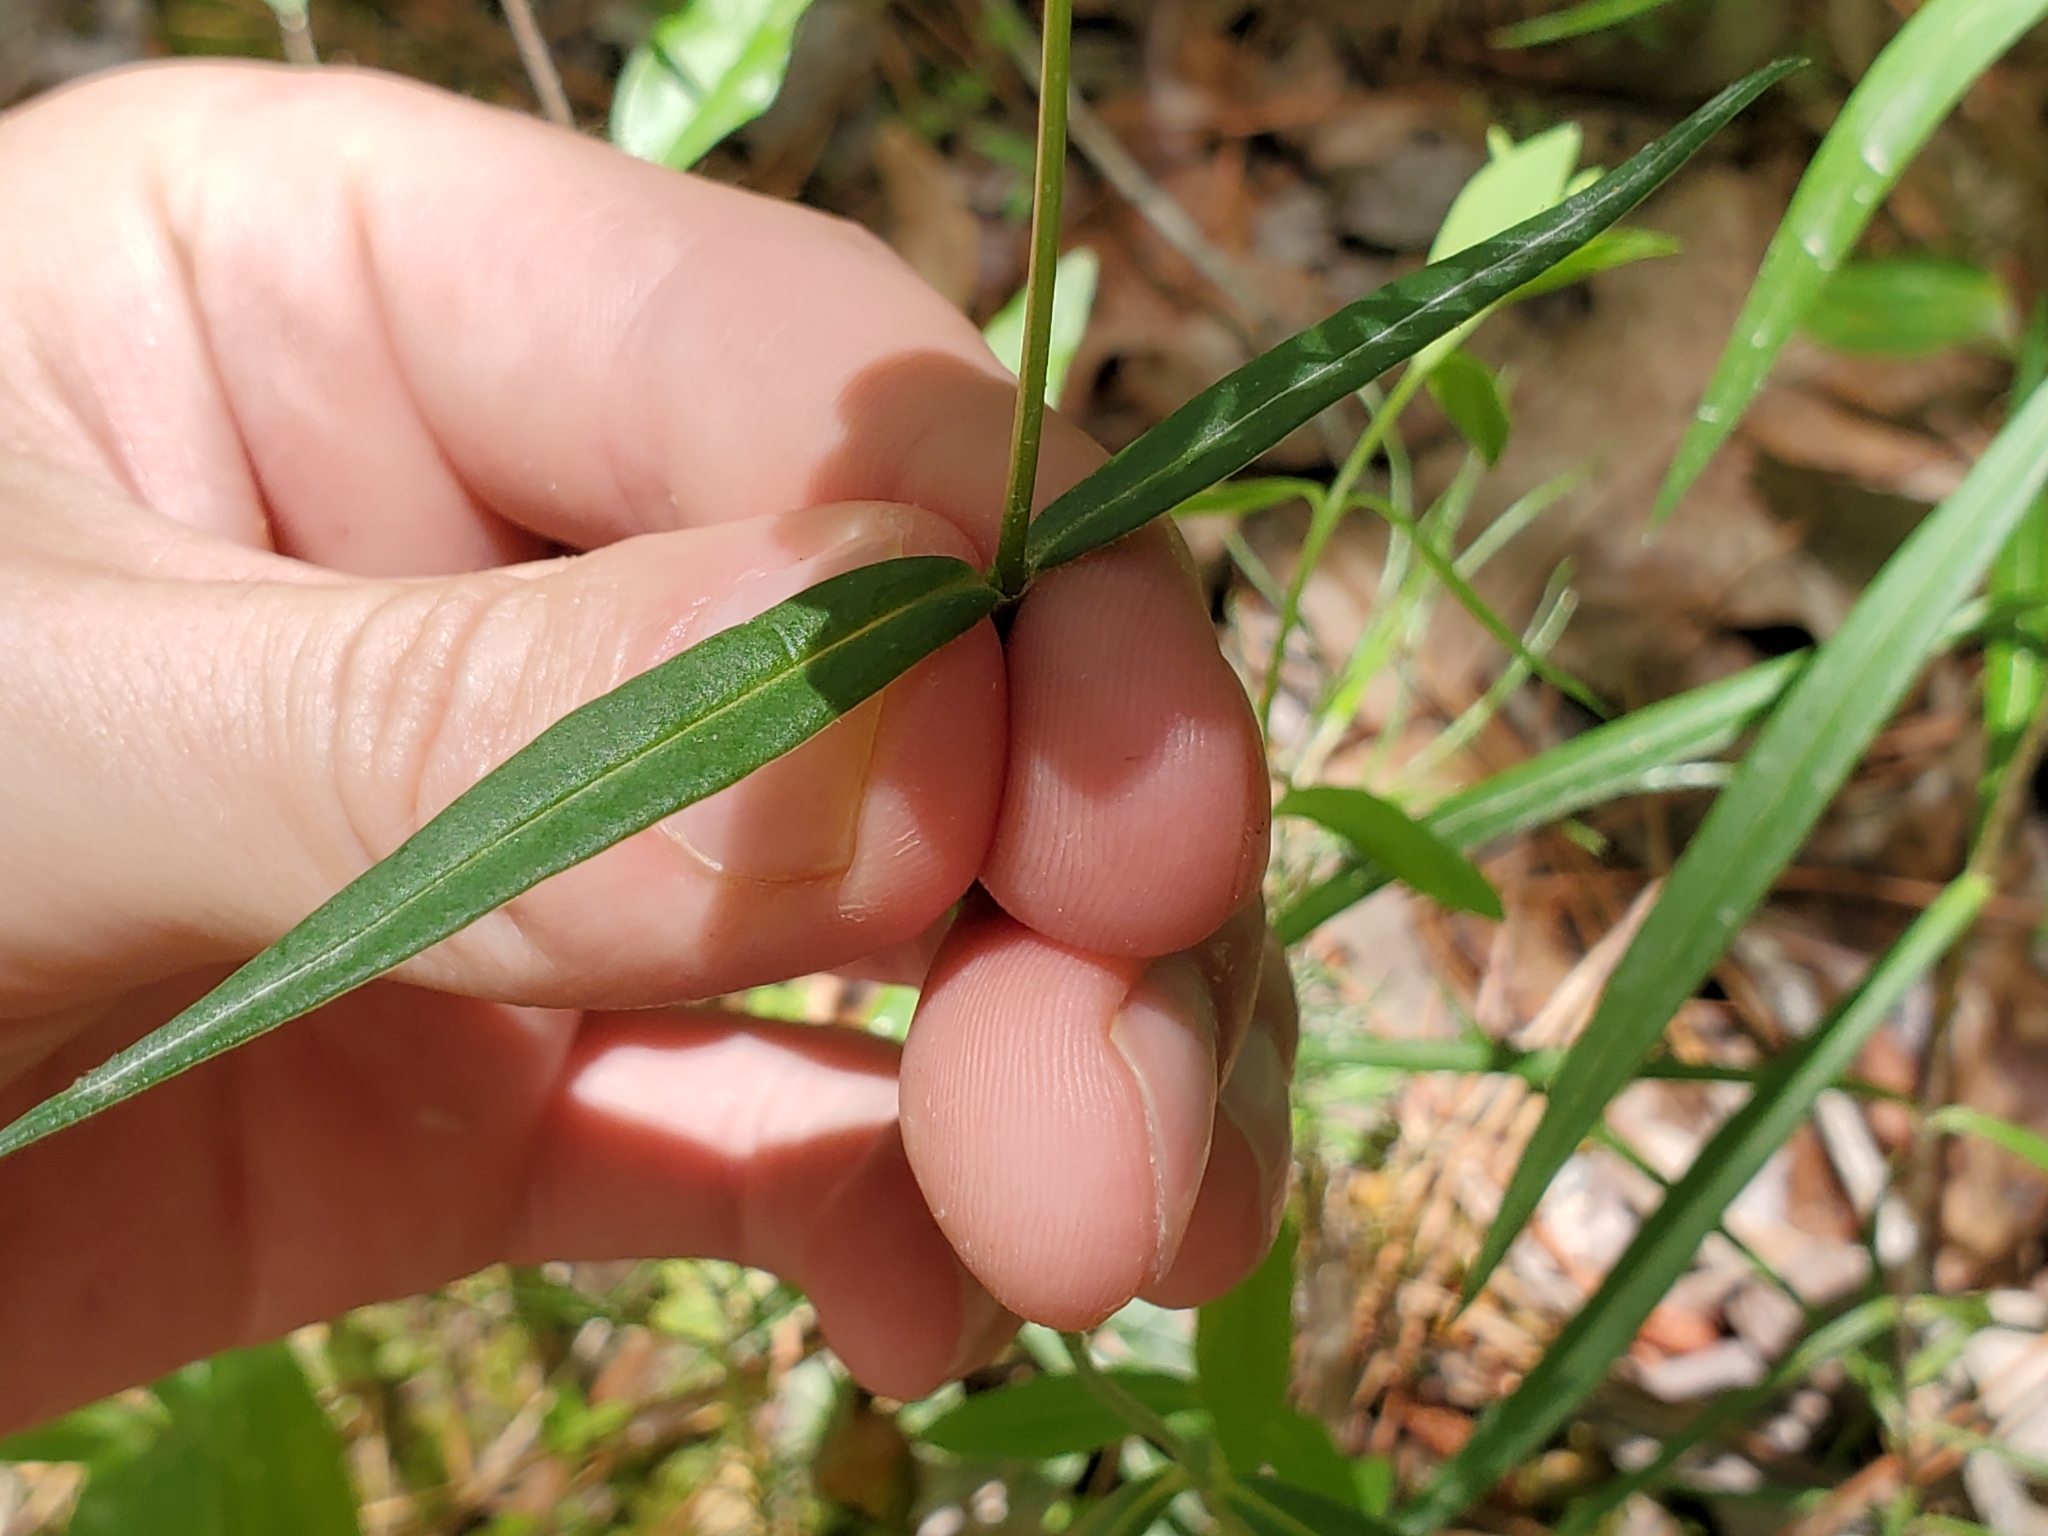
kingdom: Plantae
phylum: Tracheophyta
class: Magnoliopsida
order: Ericales
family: Polemoniaceae
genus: Phlox
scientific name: Phlox carolina
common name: Thick-leaf phlox
